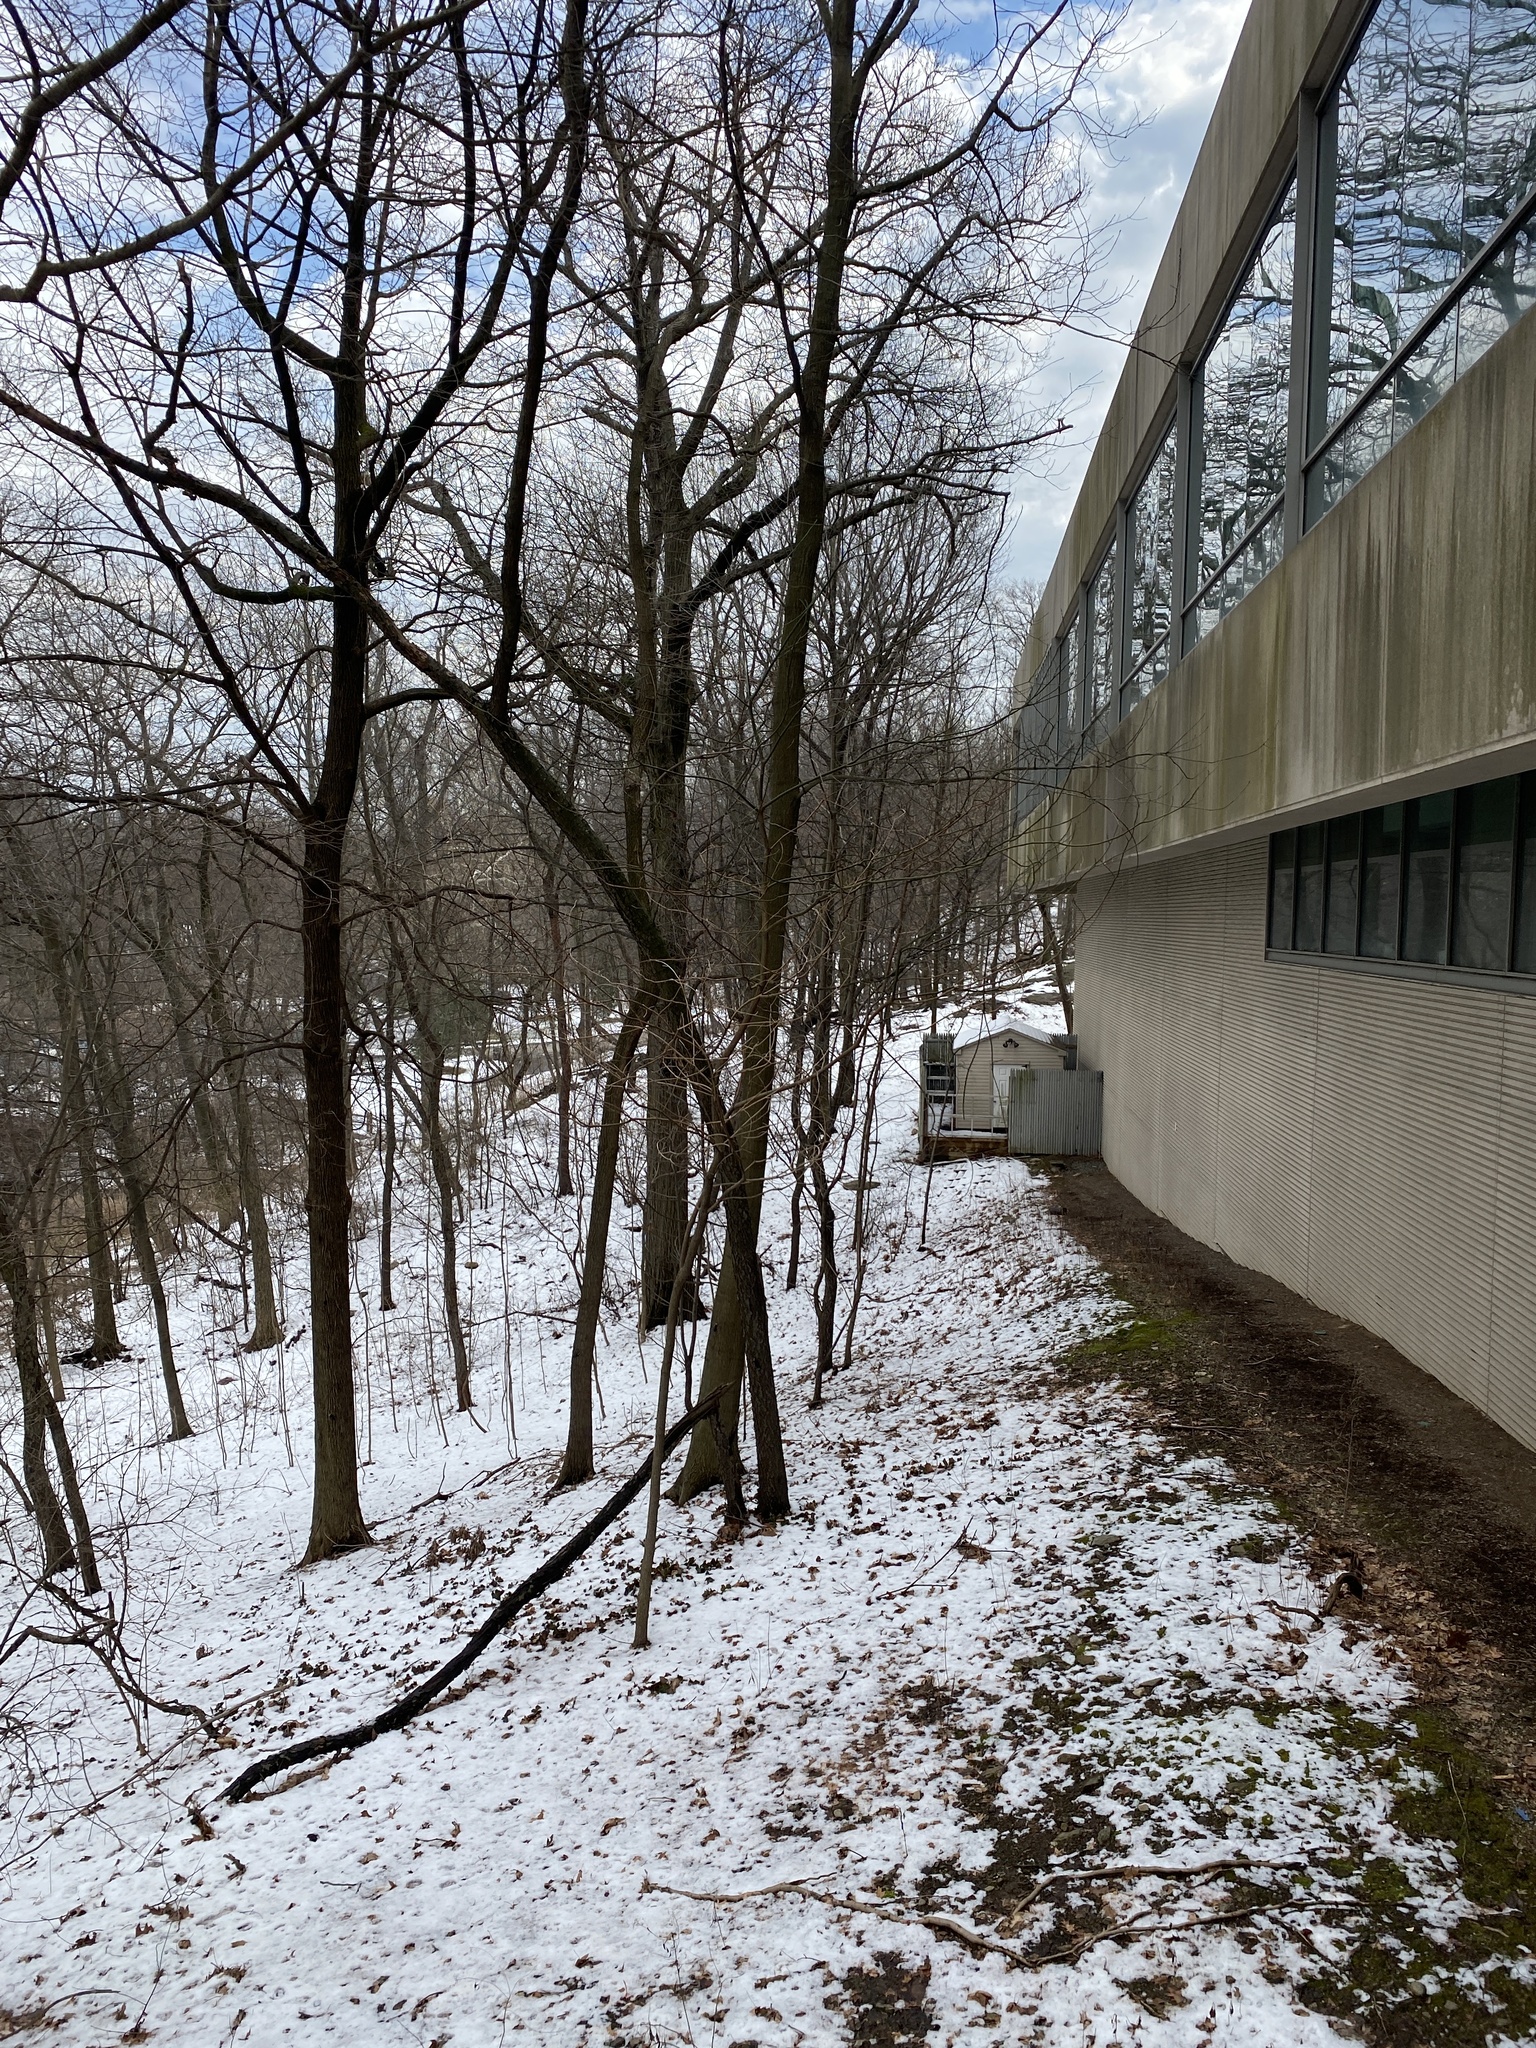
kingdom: Plantae
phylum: Tracheophyta
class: Magnoliopsida
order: Laurales
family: Lauraceae
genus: Sassafras
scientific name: Sassafras albidum
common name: Sassafras
